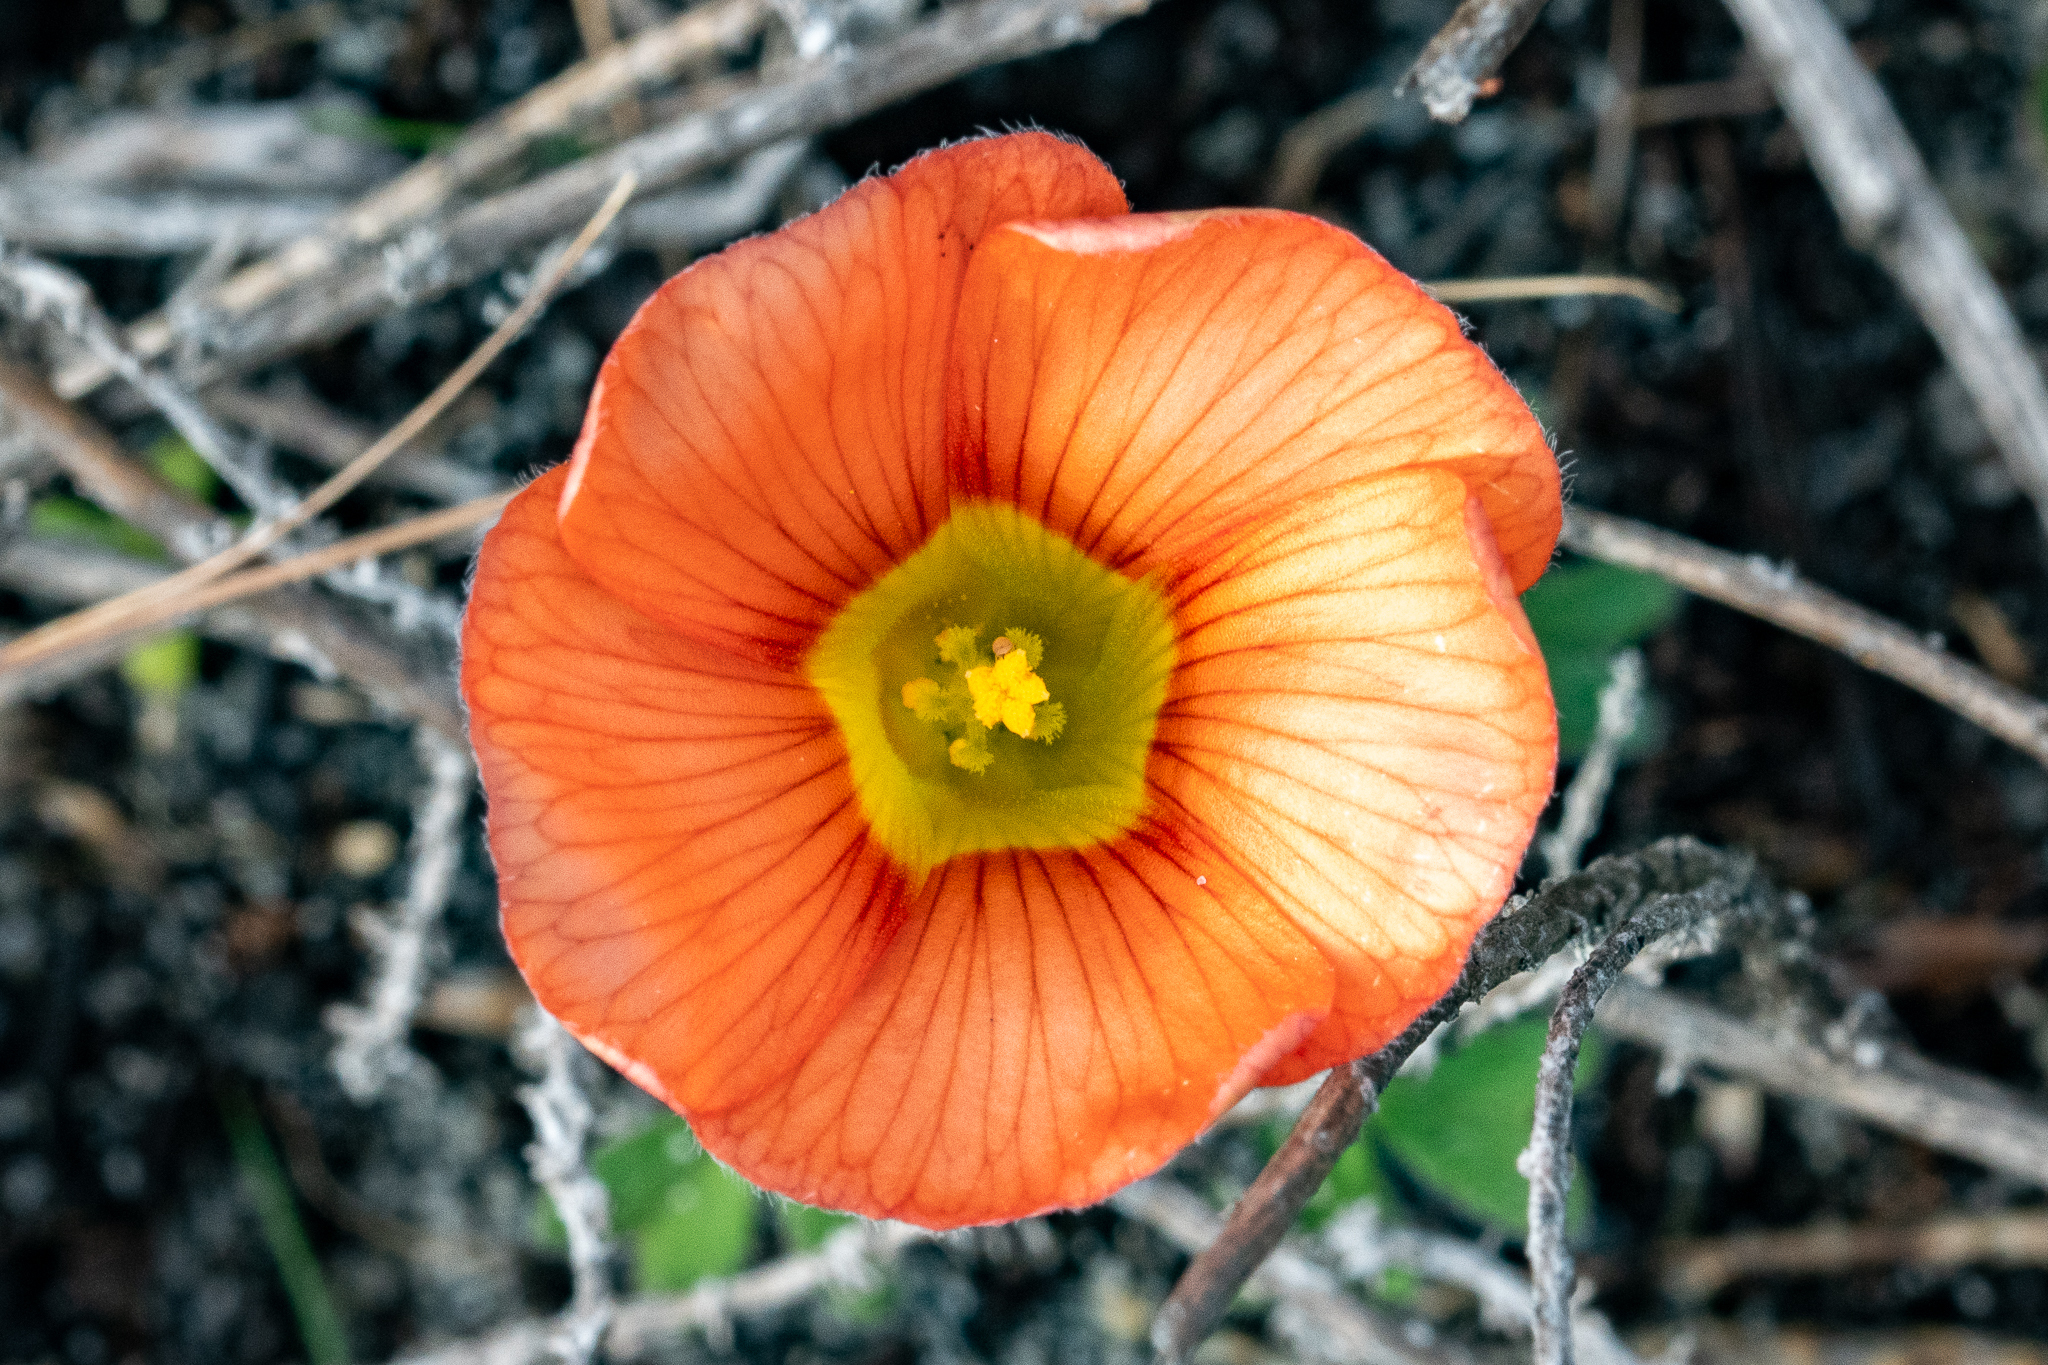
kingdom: Plantae
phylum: Tracheophyta
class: Magnoliopsida
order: Oxalidales
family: Oxalidaceae
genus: Oxalis
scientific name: Oxalis obtusa
